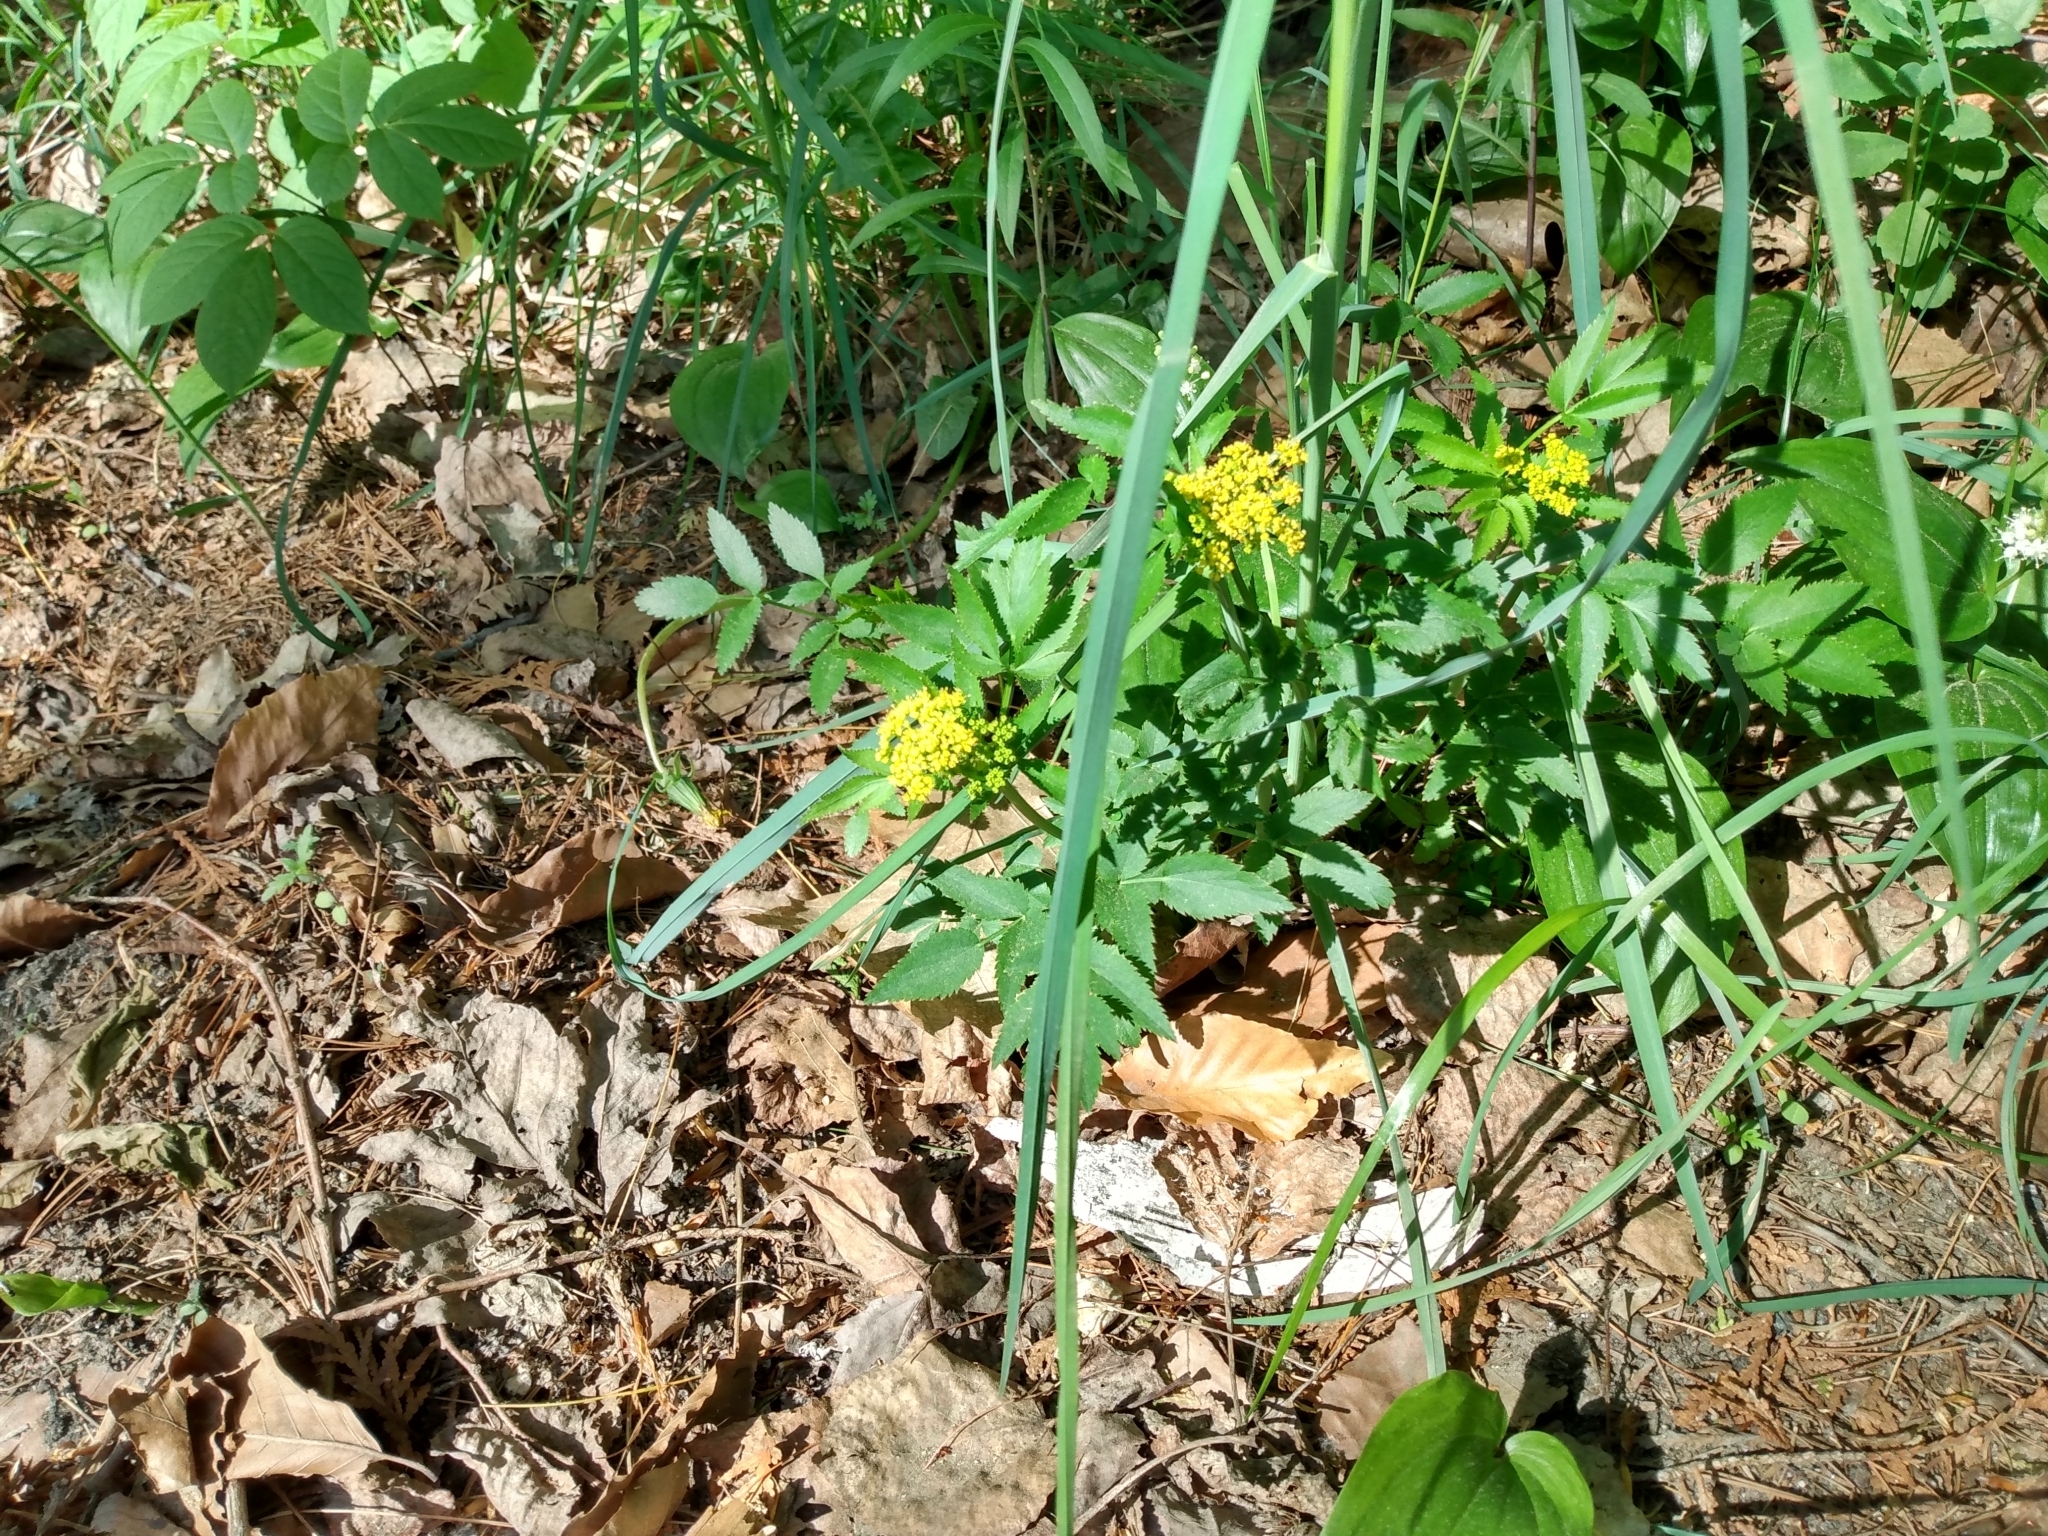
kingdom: Plantae
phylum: Tracheophyta
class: Magnoliopsida
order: Apiales
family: Apiaceae
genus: Zizia
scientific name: Zizia aurea
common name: Golden alexanders
